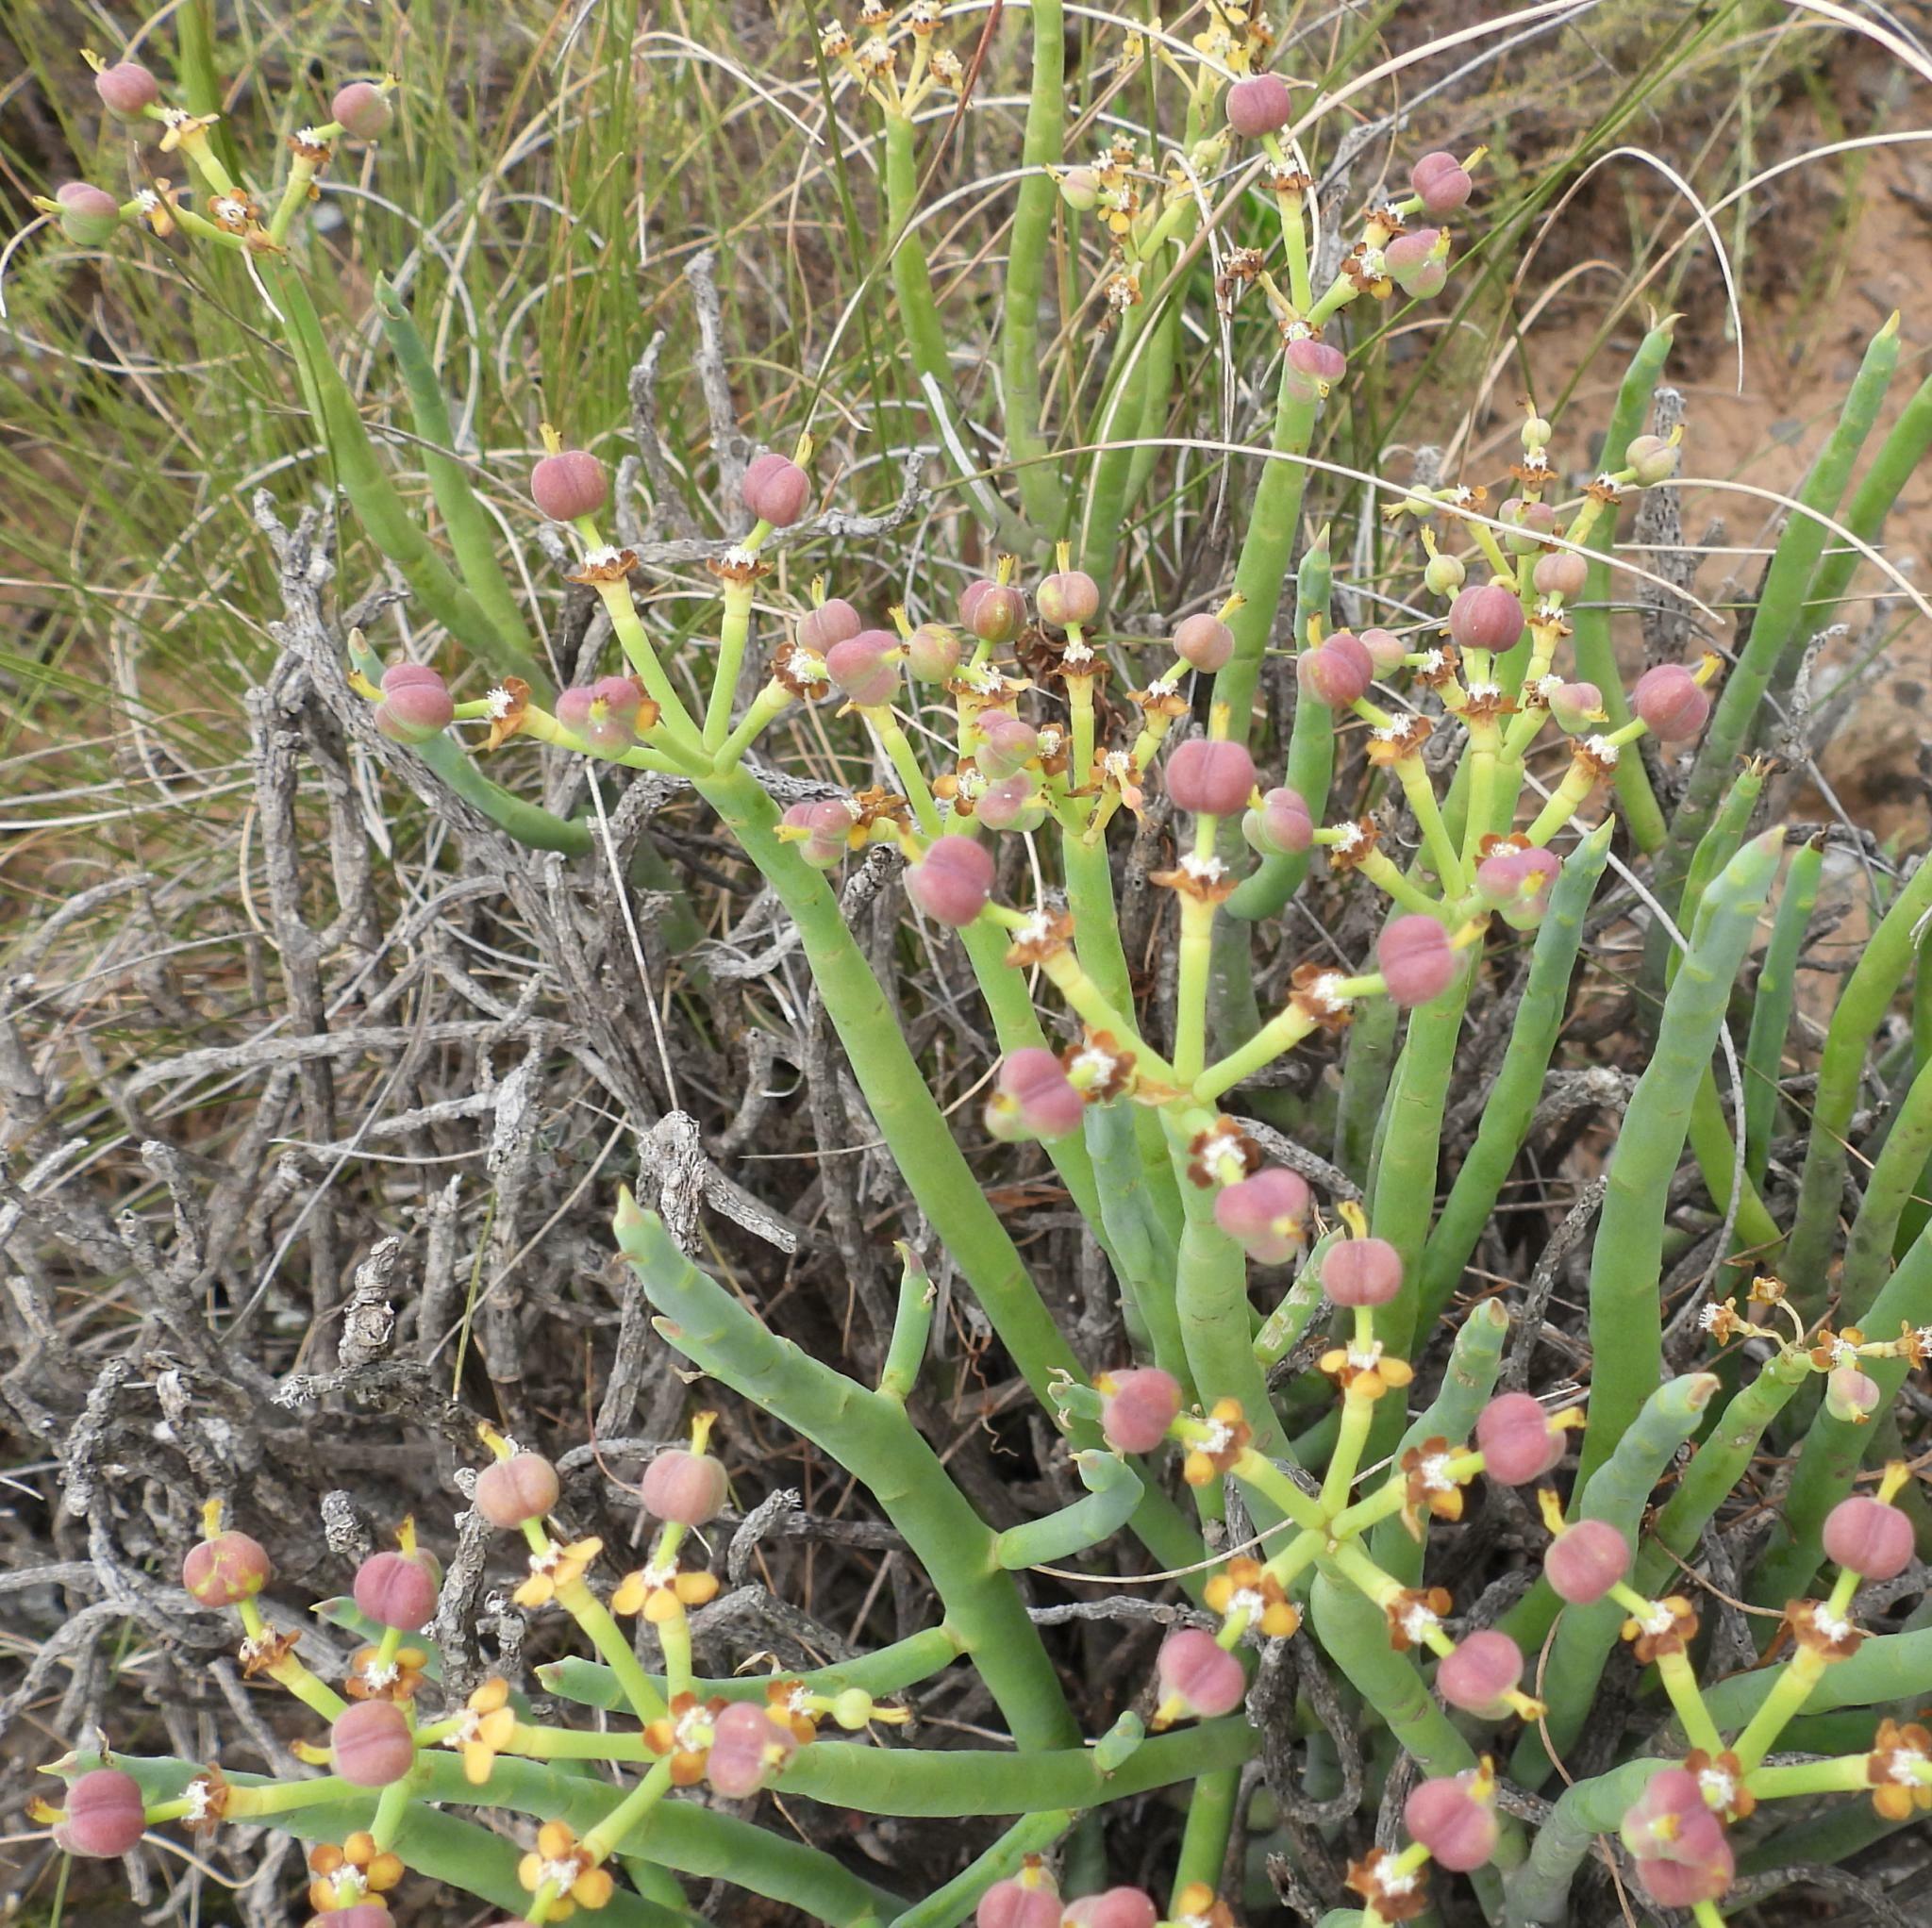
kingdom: Plantae
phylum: Tracheophyta
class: Magnoliopsida
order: Malpighiales
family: Euphorbiaceae
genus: Euphorbia
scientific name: Euphorbia mauritanica
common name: Jackal's-food
